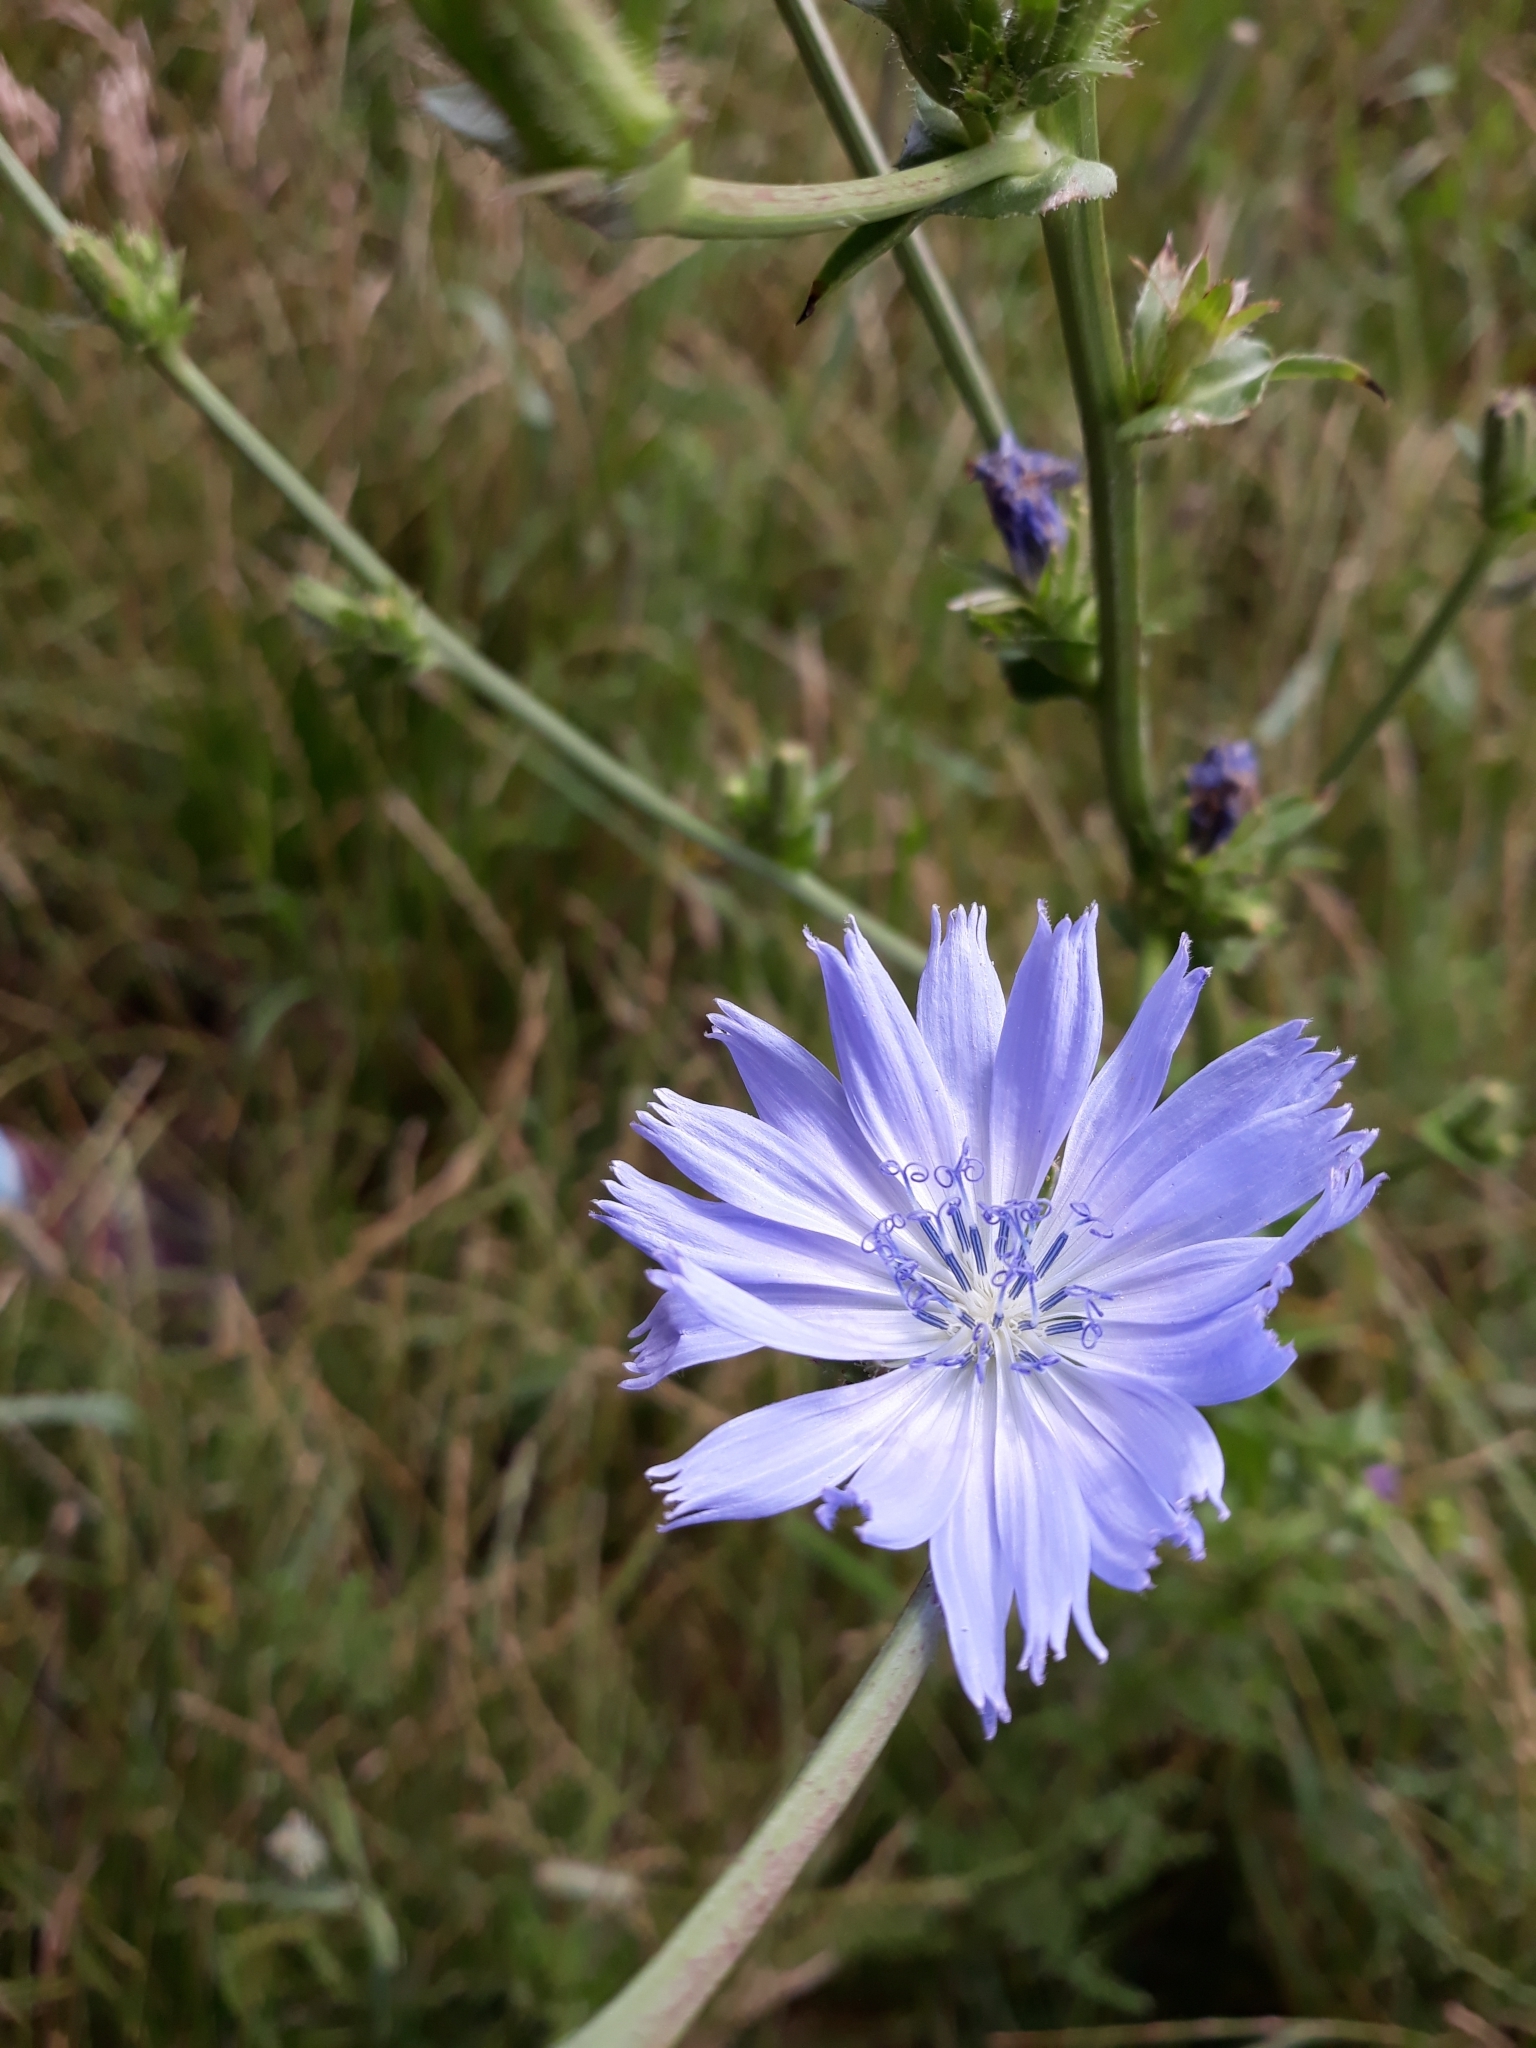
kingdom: Plantae
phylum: Tracheophyta
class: Magnoliopsida
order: Asterales
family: Asteraceae
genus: Cichorium
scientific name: Cichorium intybus
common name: Chicory
